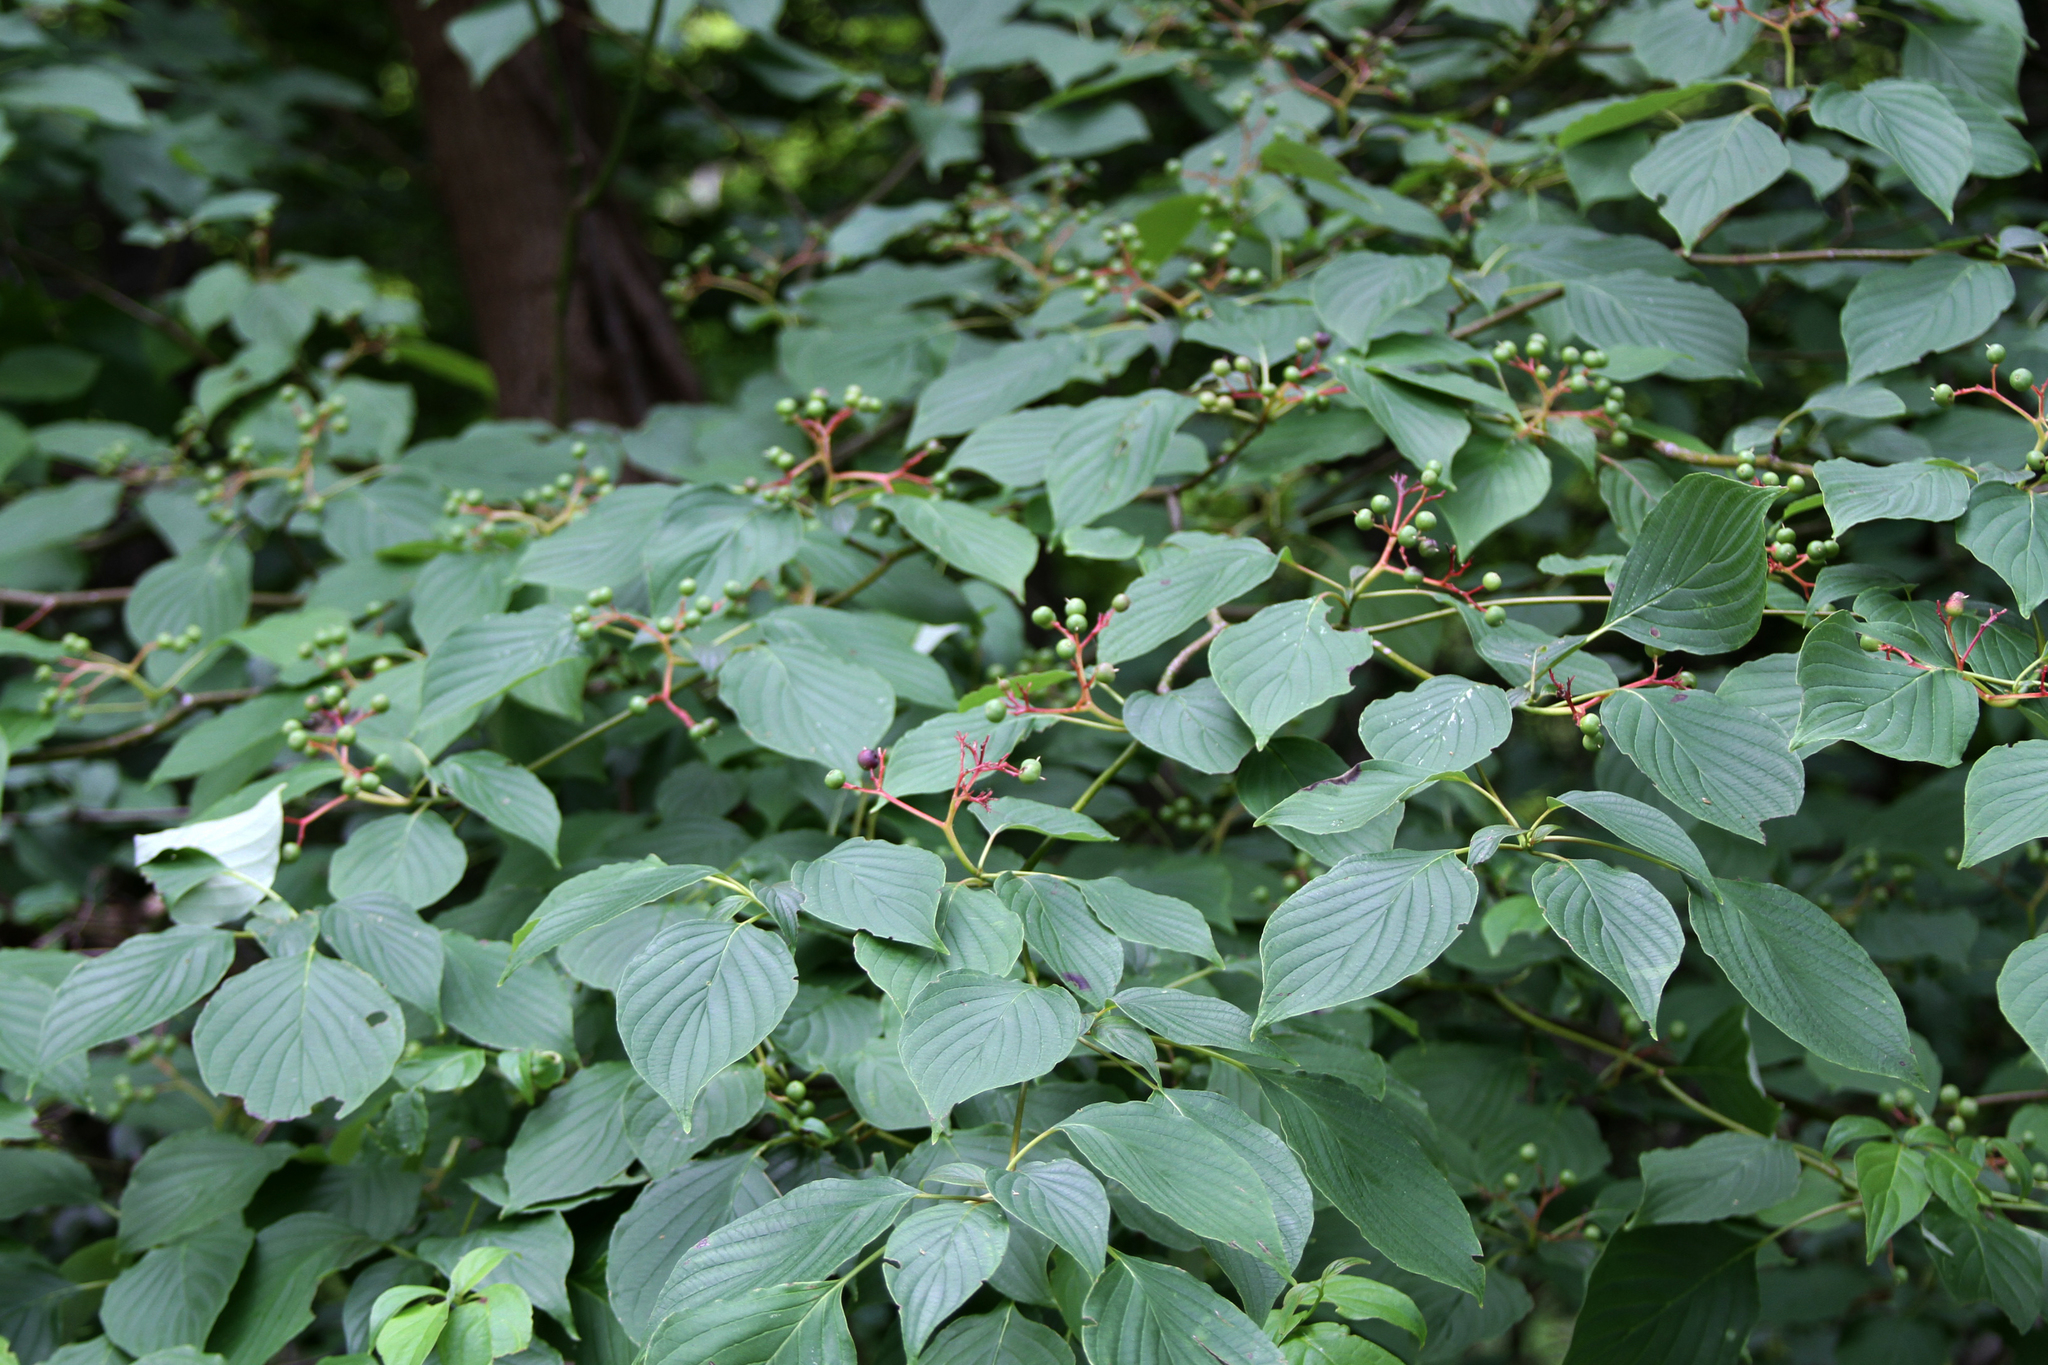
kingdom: Plantae
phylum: Tracheophyta
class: Magnoliopsida
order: Cornales
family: Cornaceae
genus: Cornus
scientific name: Cornus alternifolia
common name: Pagoda dogwood
